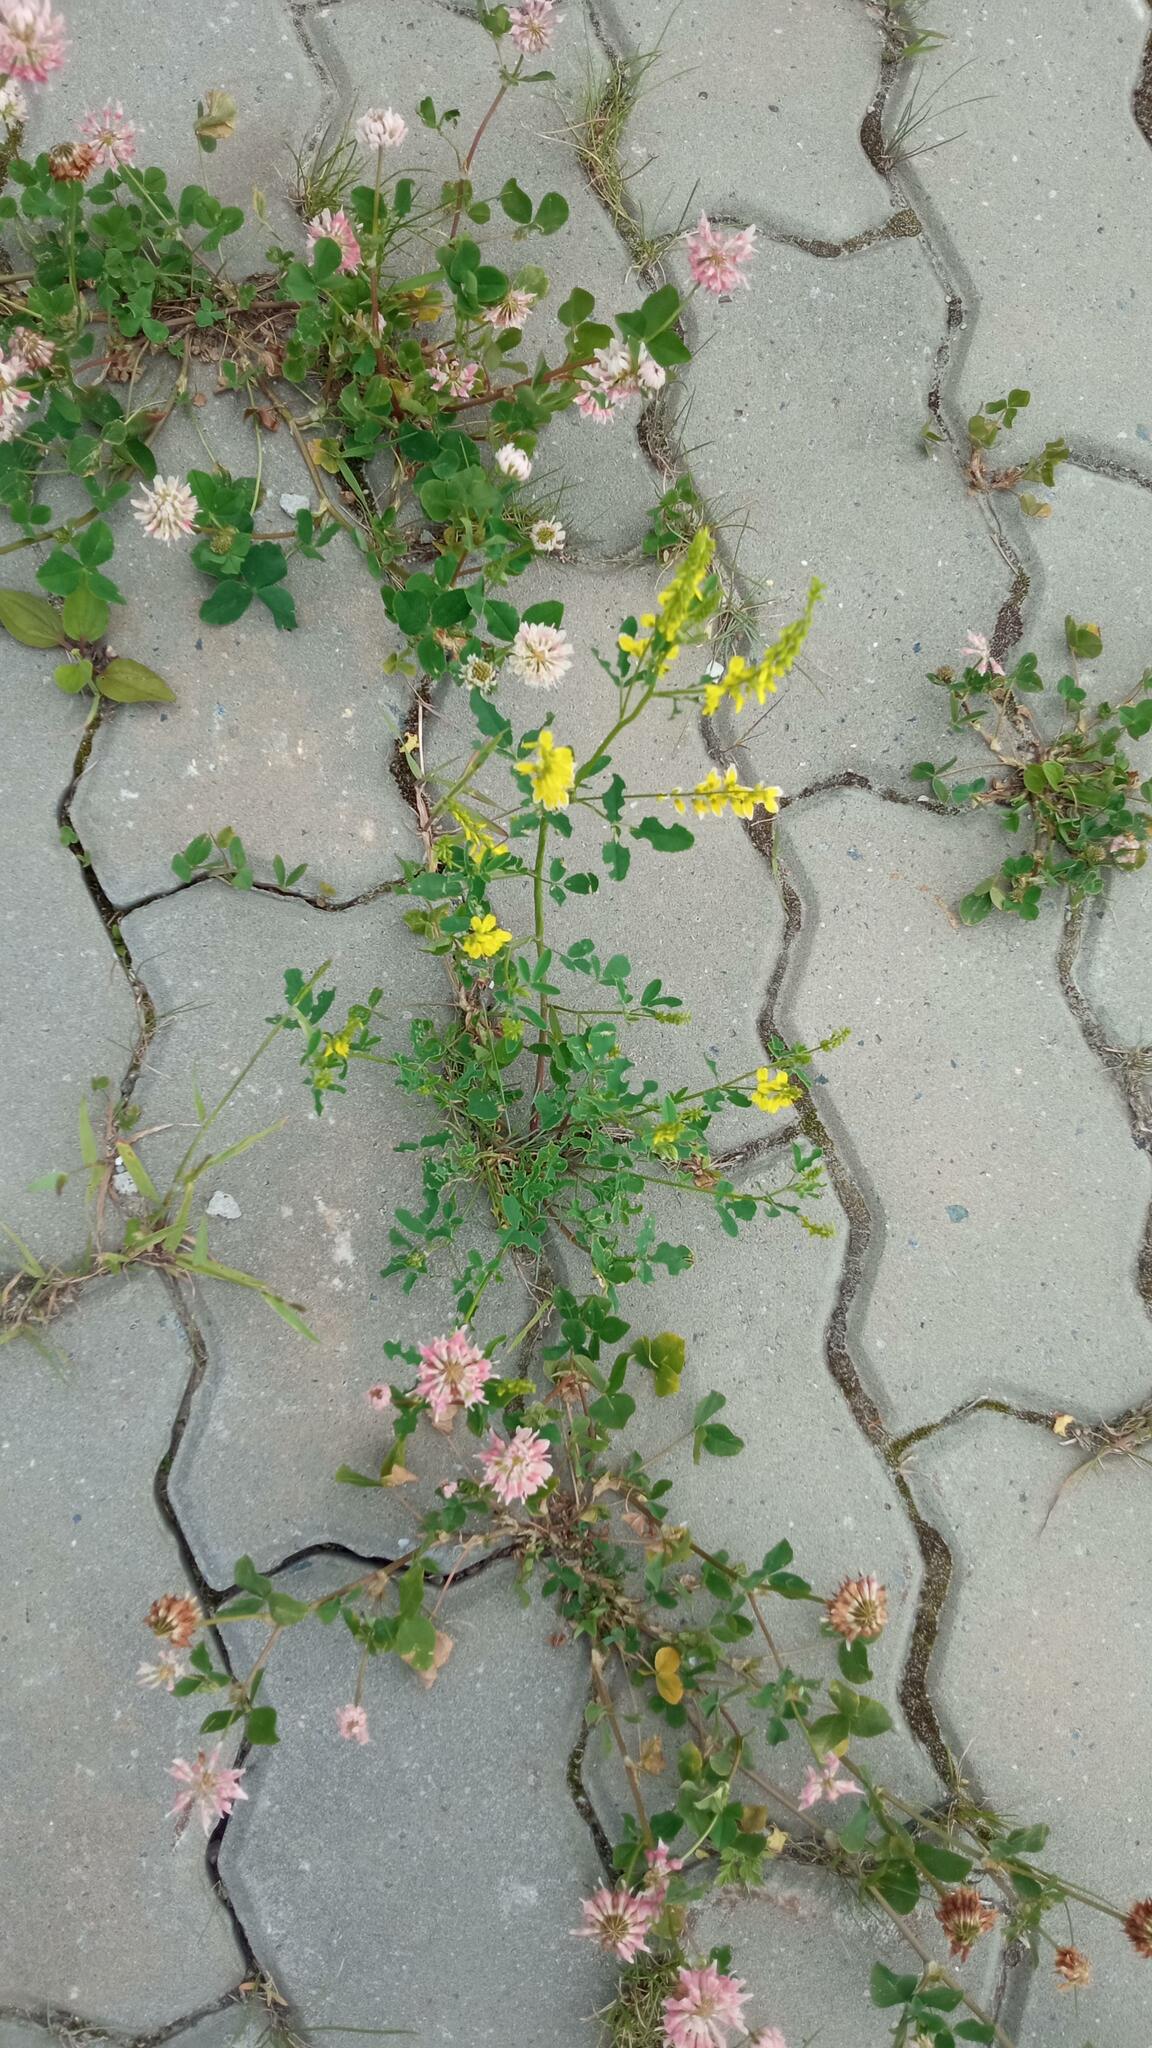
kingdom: Plantae
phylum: Tracheophyta
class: Magnoliopsida
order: Fabales
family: Fabaceae
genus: Melilotus
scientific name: Melilotus officinalis
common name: Sweetclover
